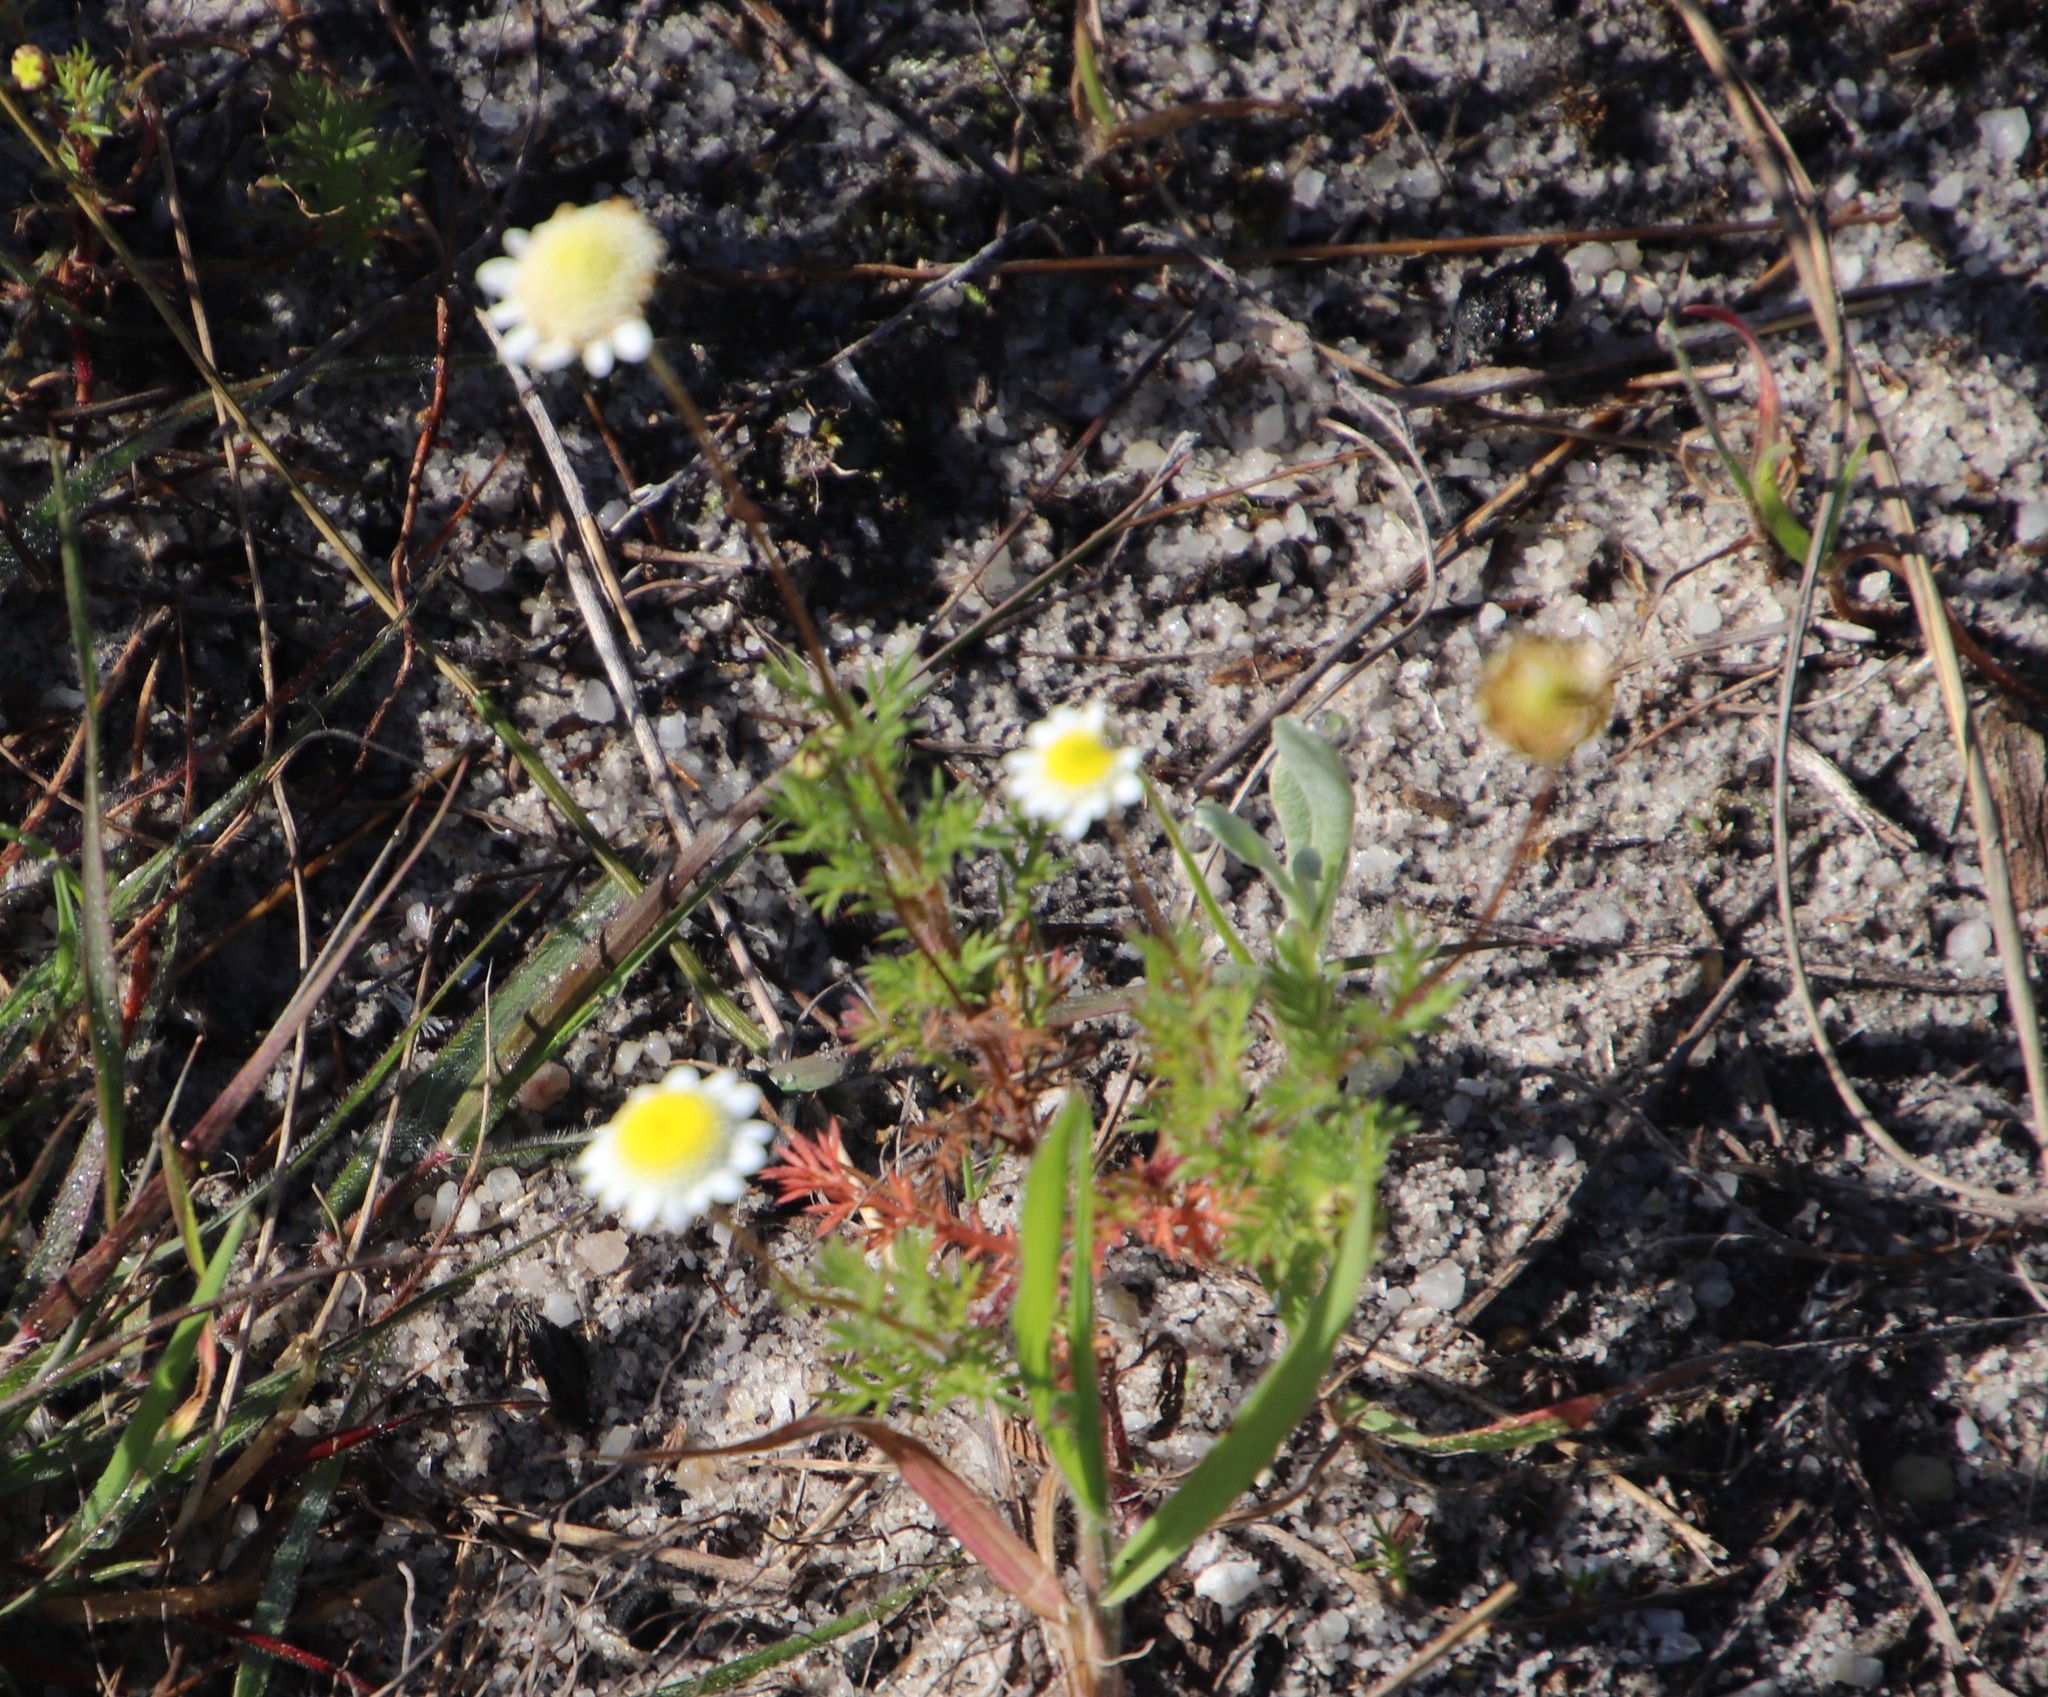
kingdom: Plantae
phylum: Tracheophyta
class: Magnoliopsida
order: Asterales
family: Asteraceae
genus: Cotula
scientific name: Cotula turbinata
